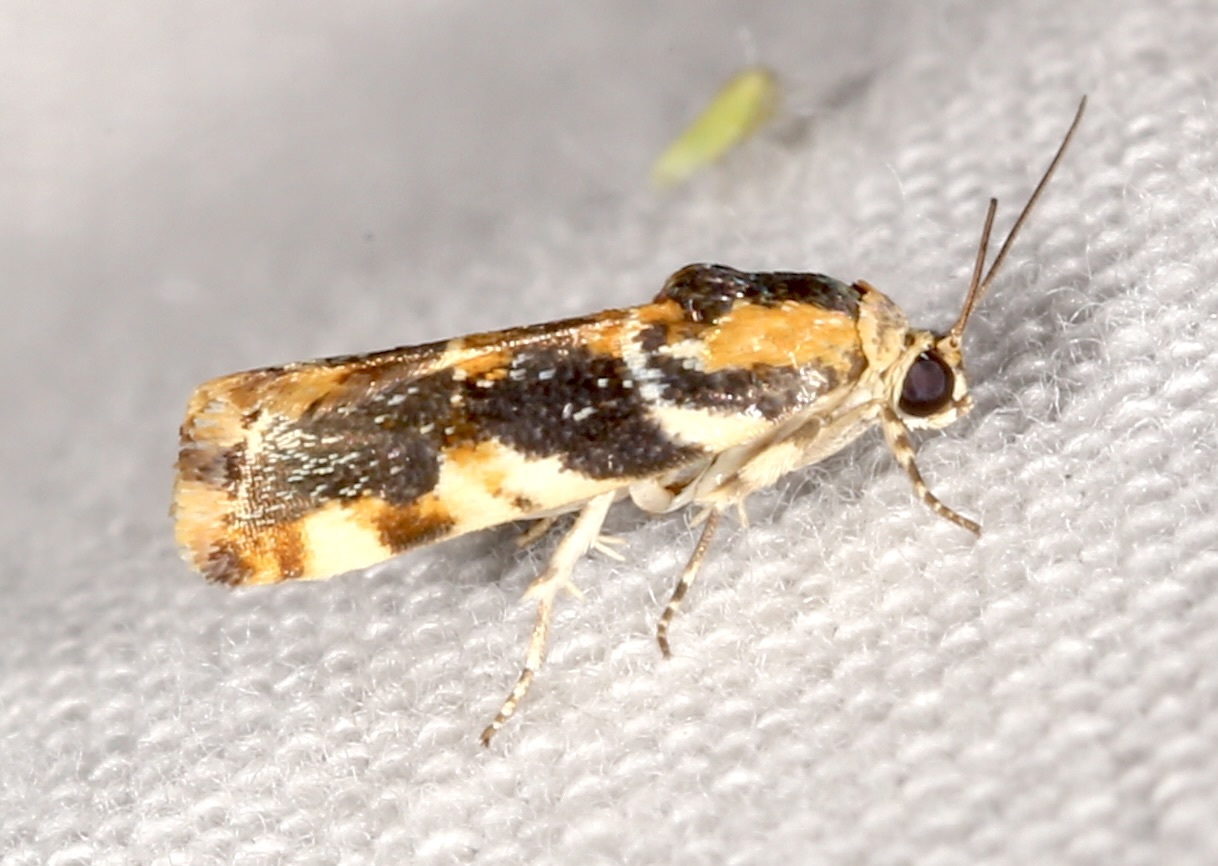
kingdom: Animalia
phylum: Arthropoda
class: Insecta
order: Lepidoptera
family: Noctuidae
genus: Spragueia
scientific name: Spragueia jaguaralis
